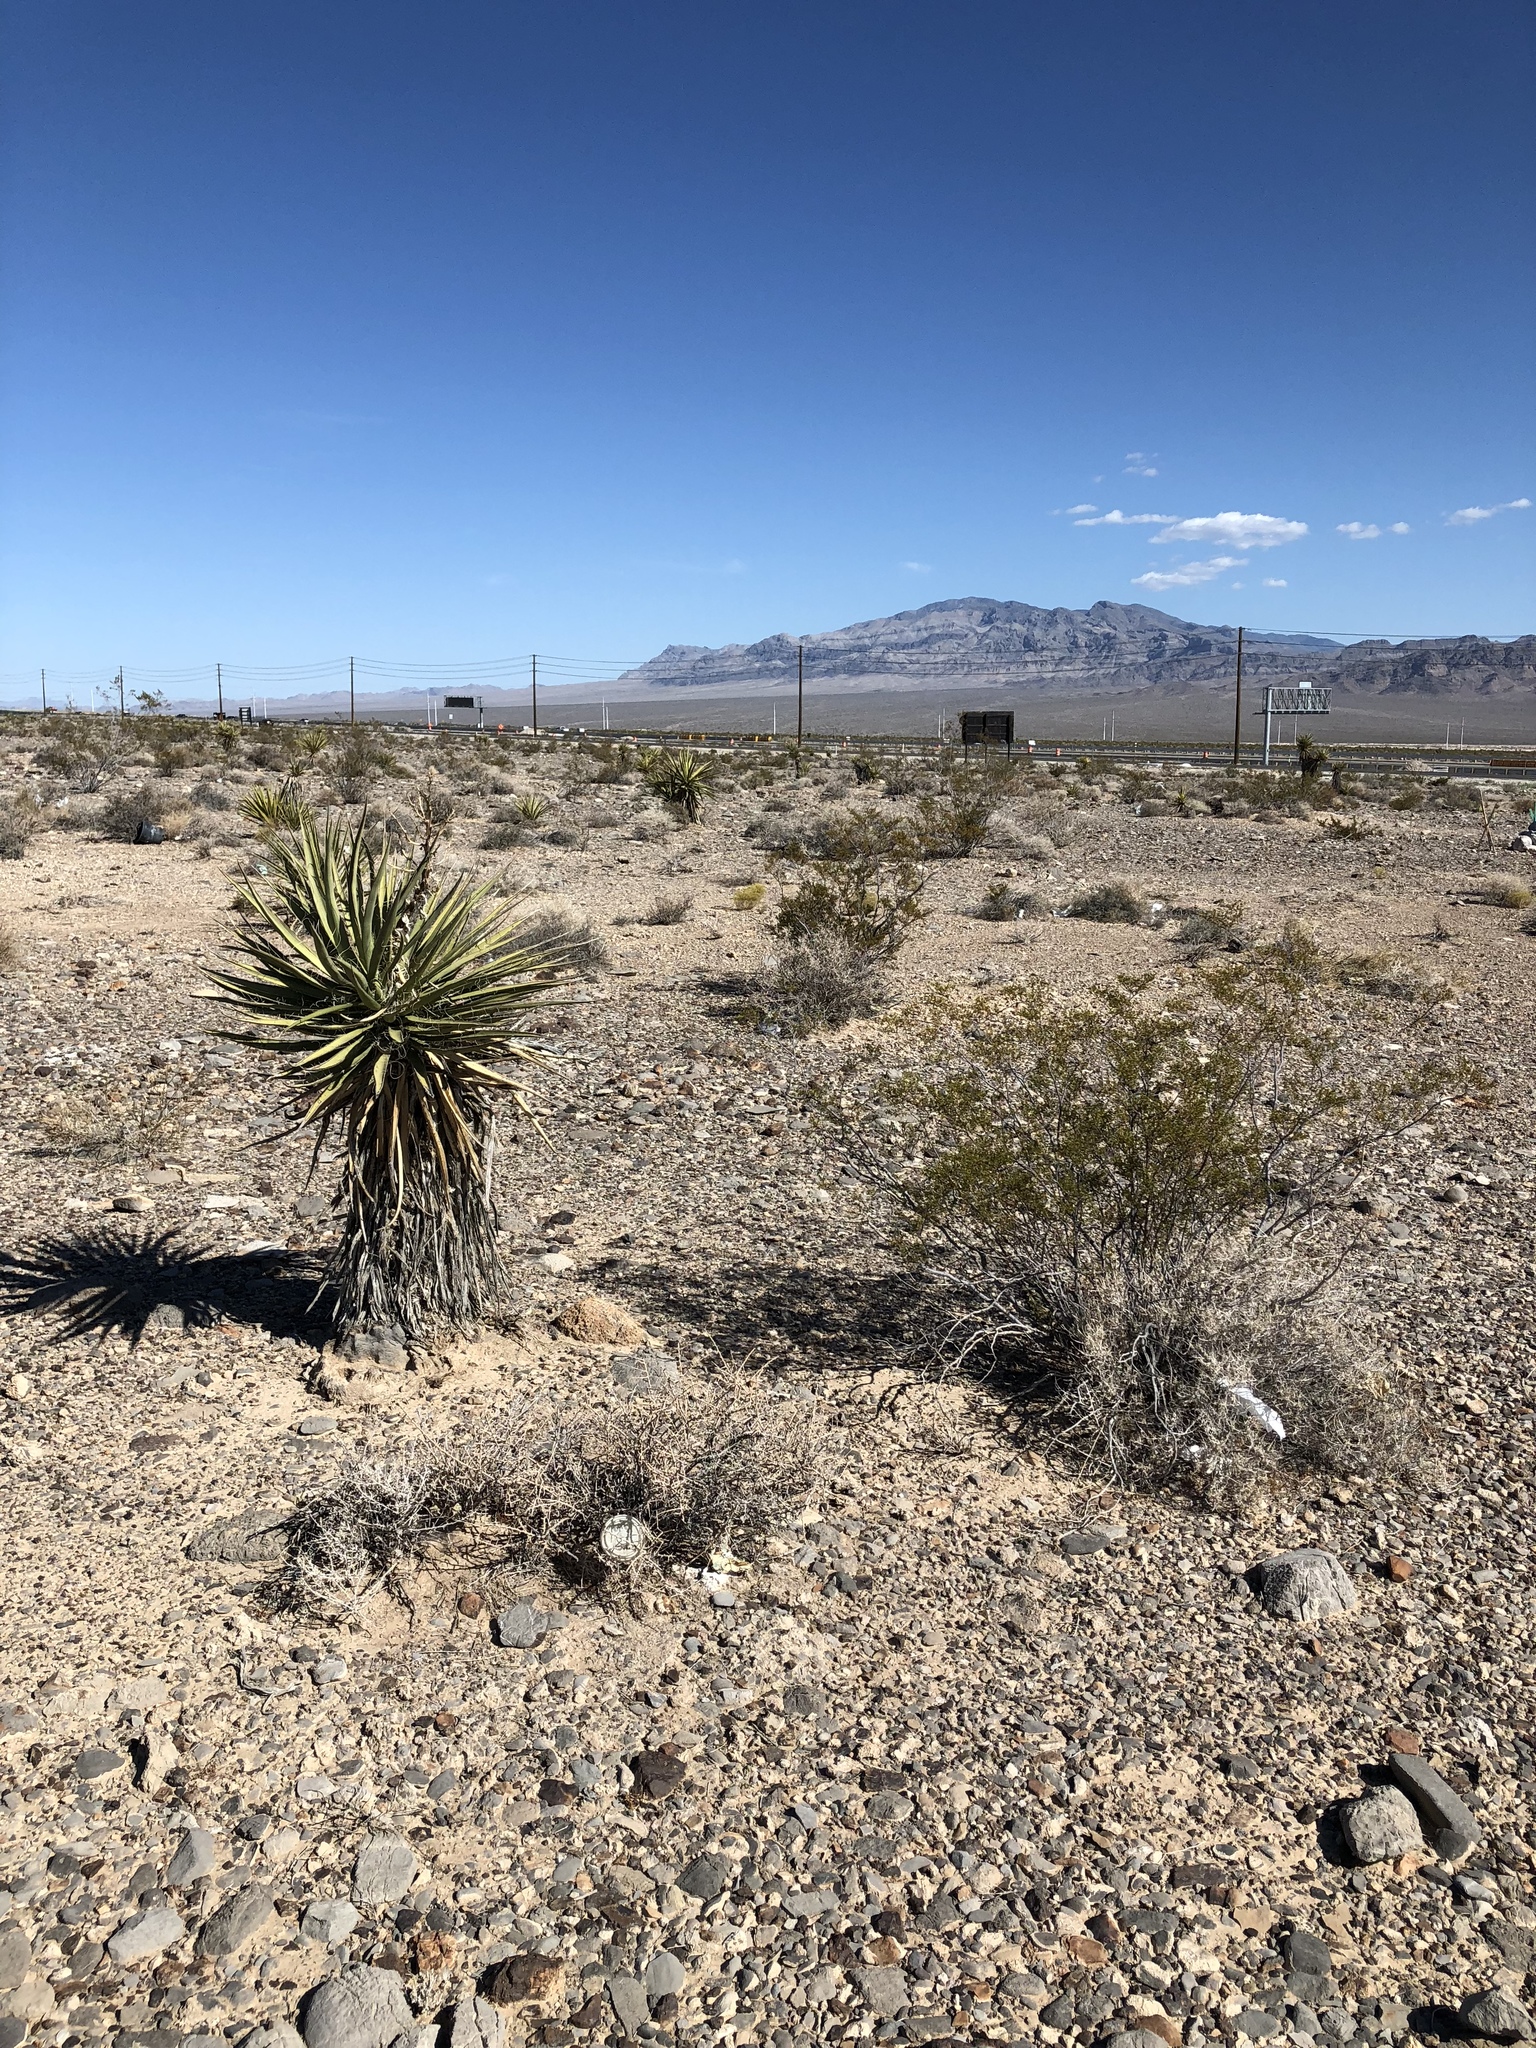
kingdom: Plantae
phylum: Tracheophyta
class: Magnoliopsida
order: Zygophyllales
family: Zygophyllaceae
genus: Larrea
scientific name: Larrea tridentata
